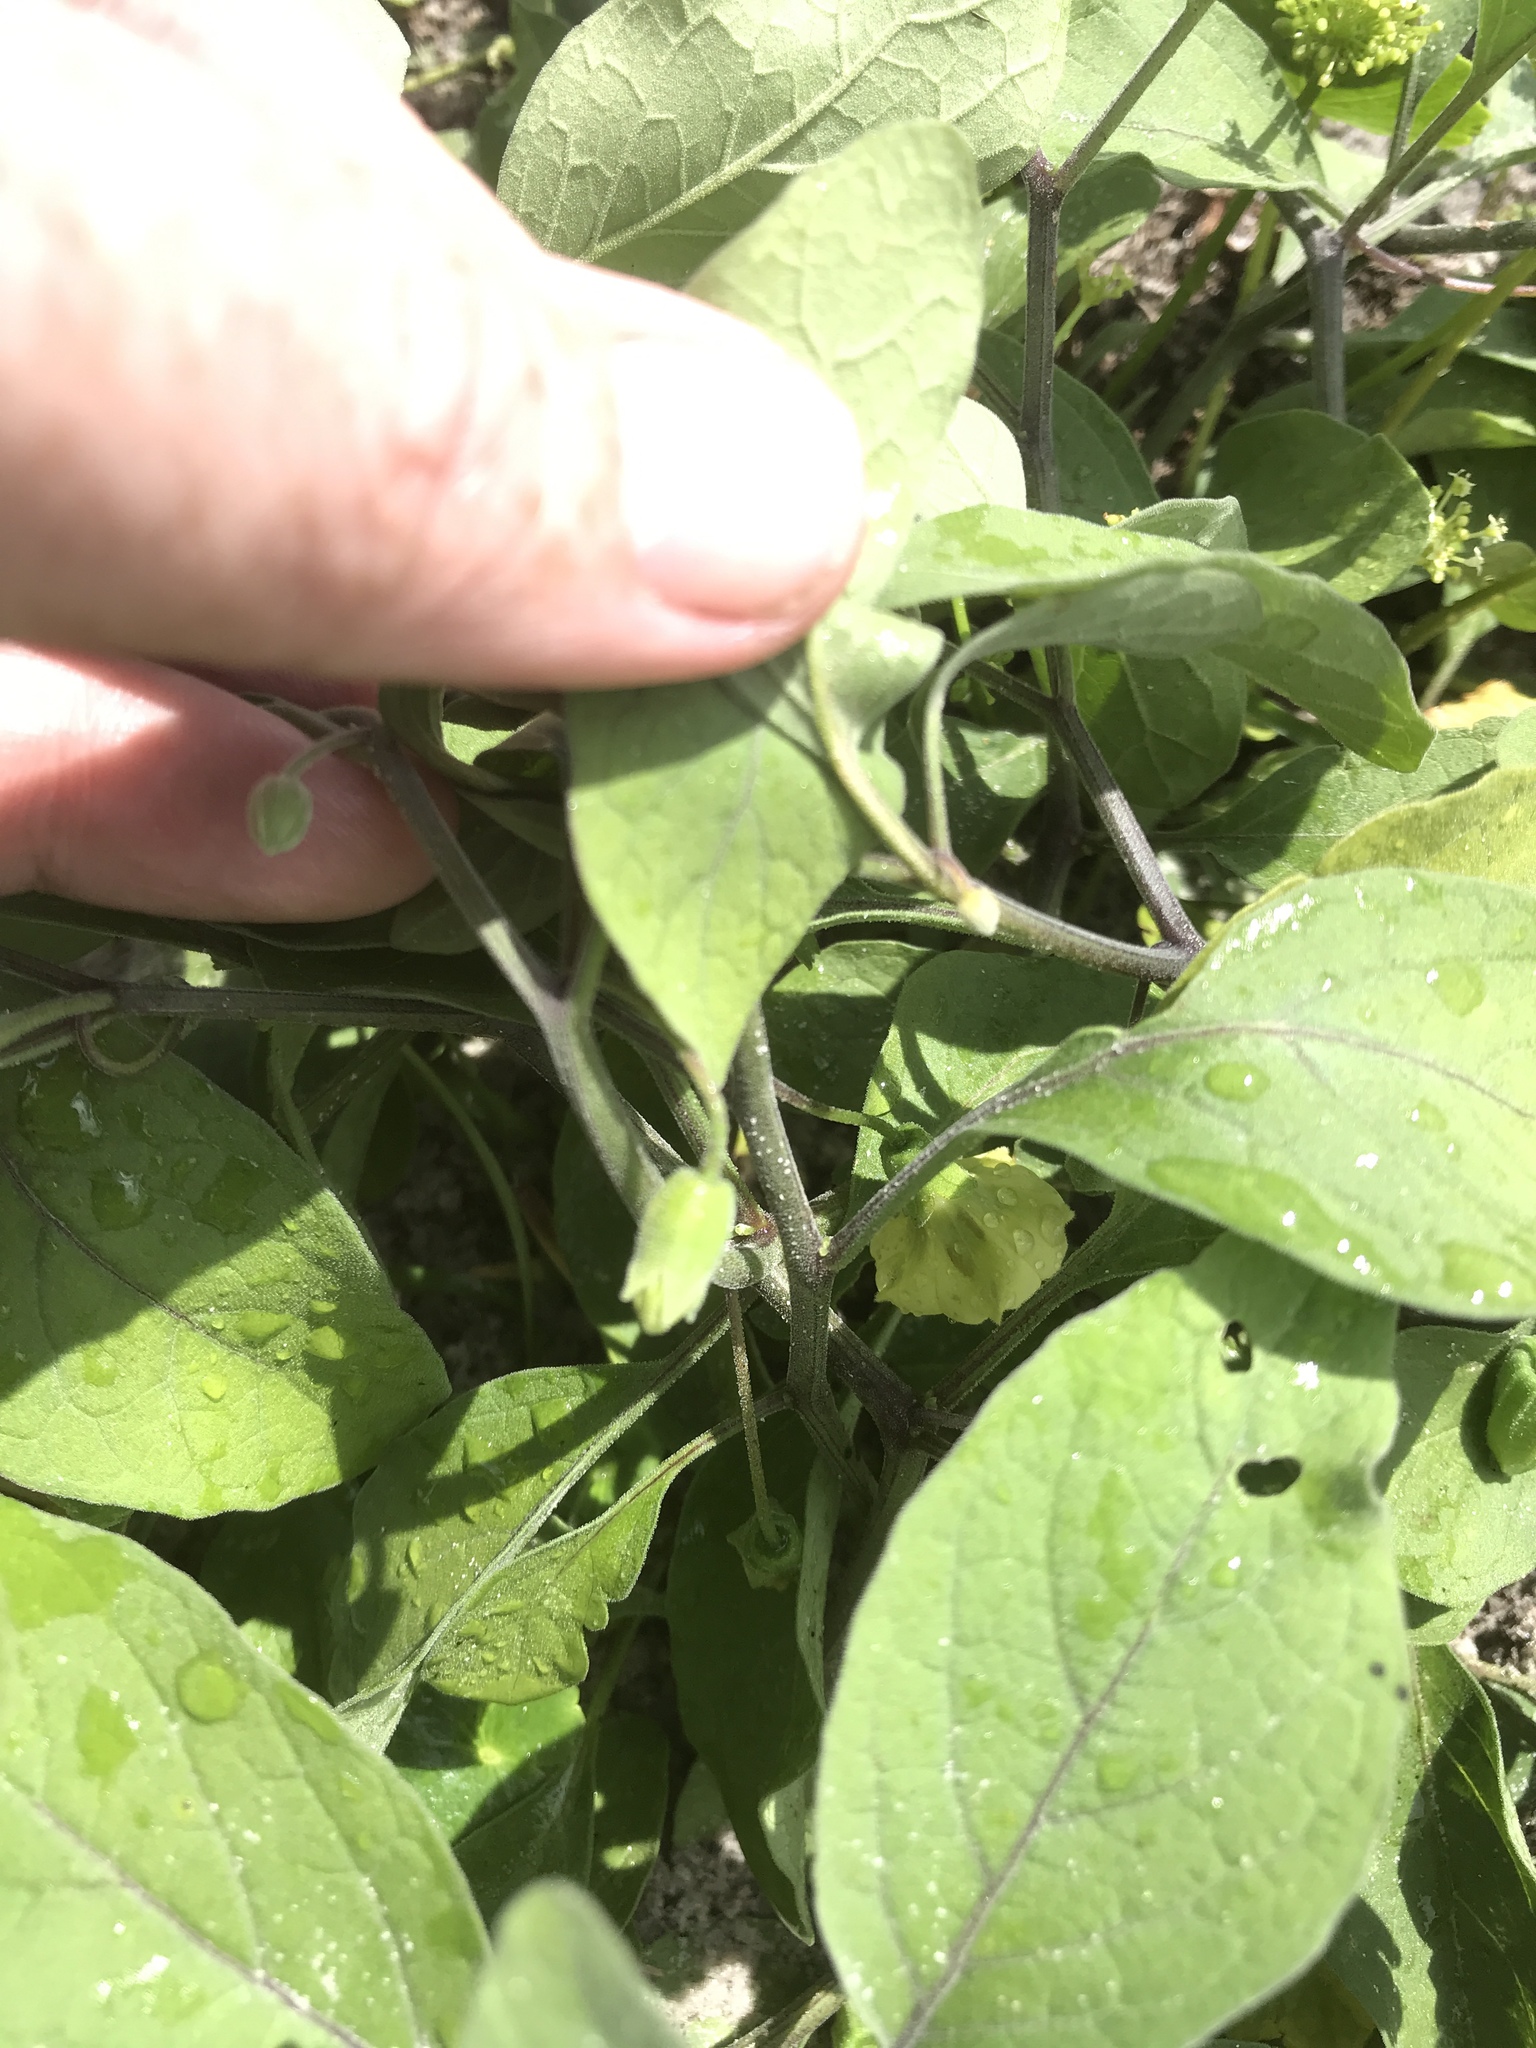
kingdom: Plantae
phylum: Tracheophyta
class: Magnoliopsida
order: Solanales
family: Solanaceae
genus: Physalis
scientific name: Physalis walteri
